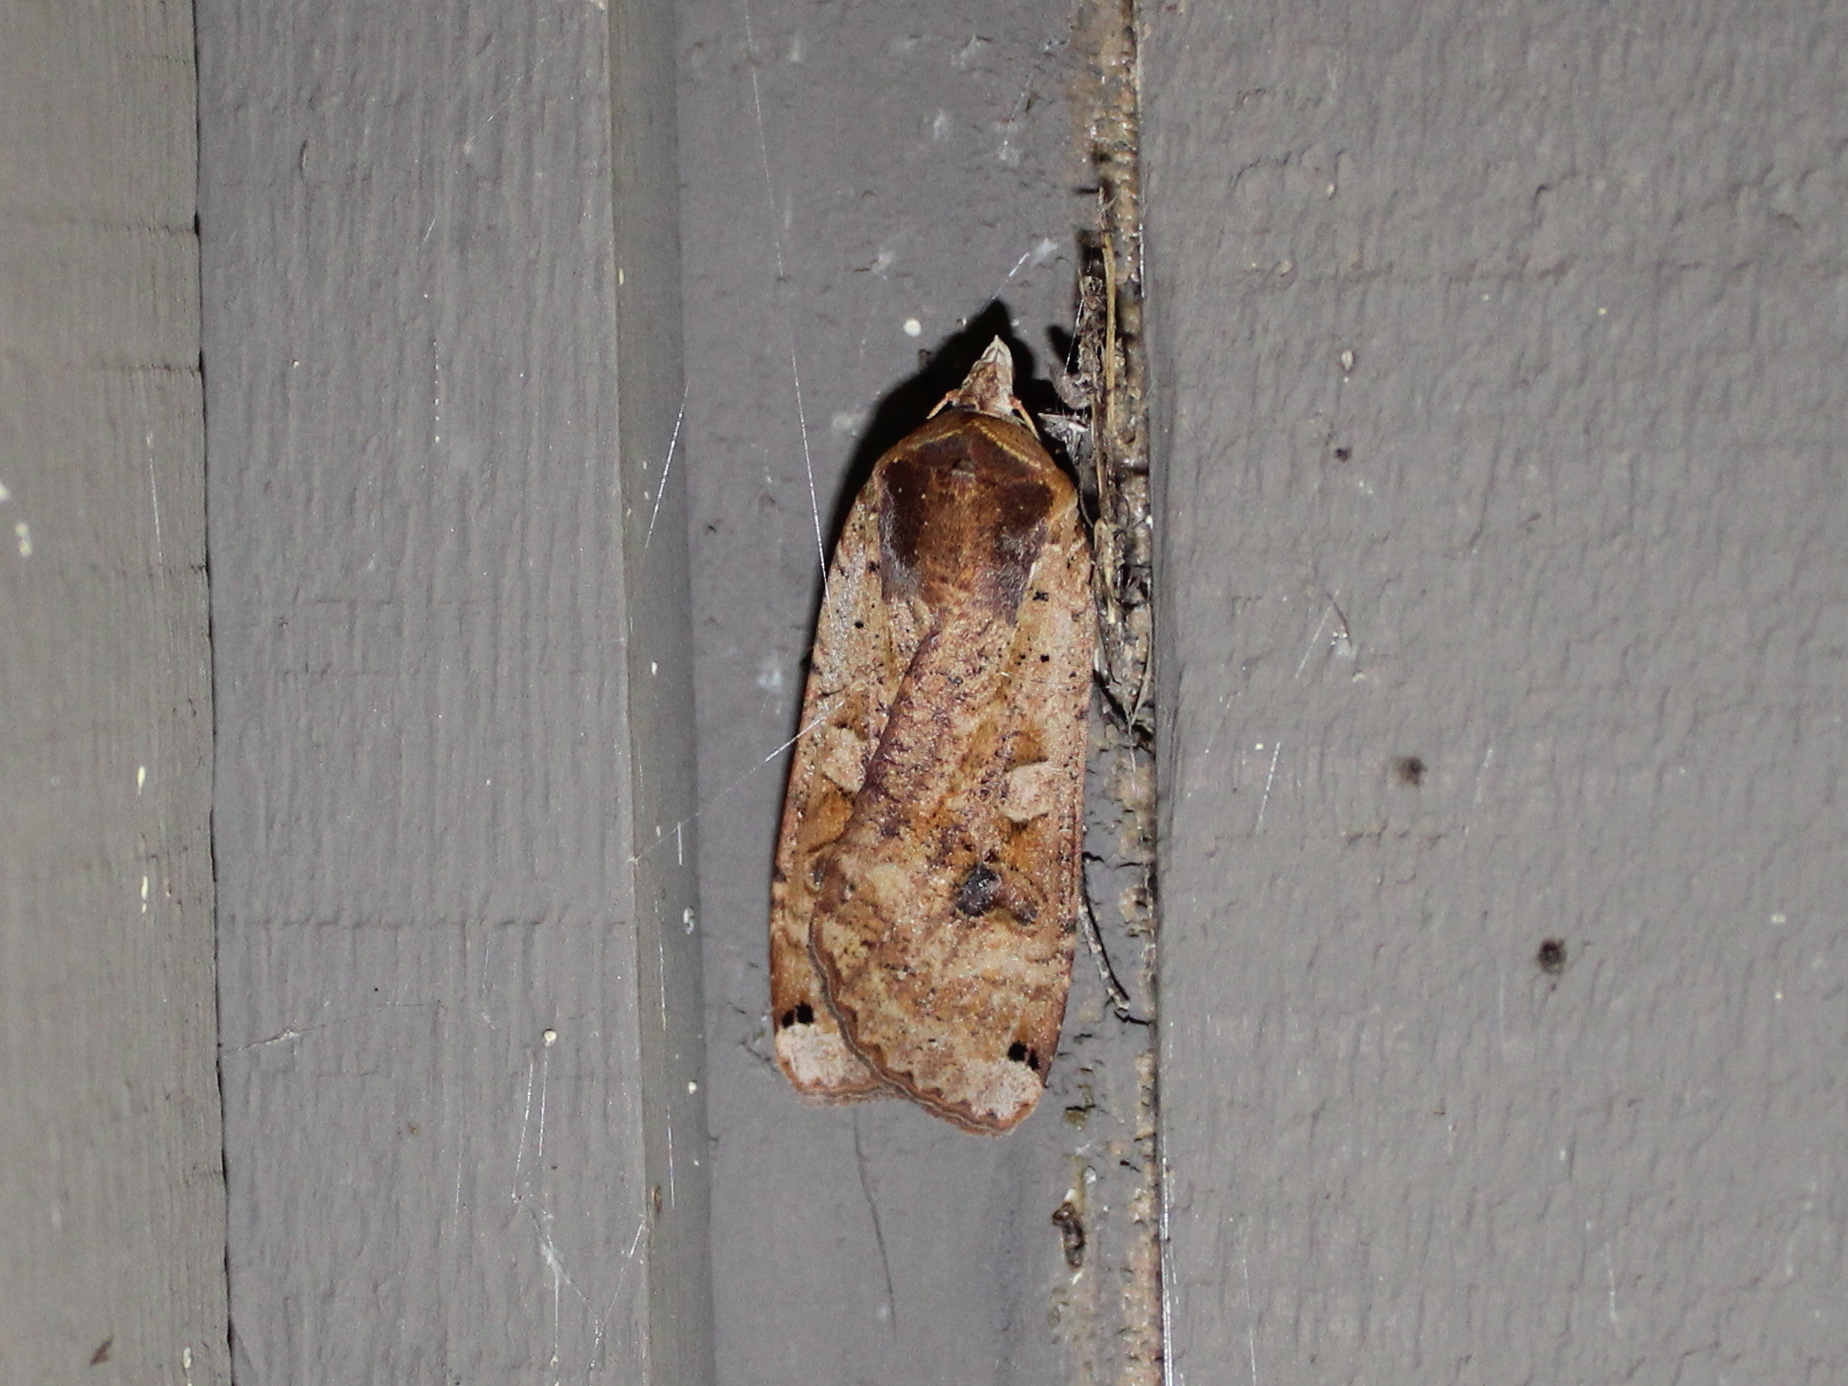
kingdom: Animalia
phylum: Arthropoda
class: Insecta
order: Lepidoptera
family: Noctuidae
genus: Noctua
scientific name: Noctua pronuba
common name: Large yellow underwing
